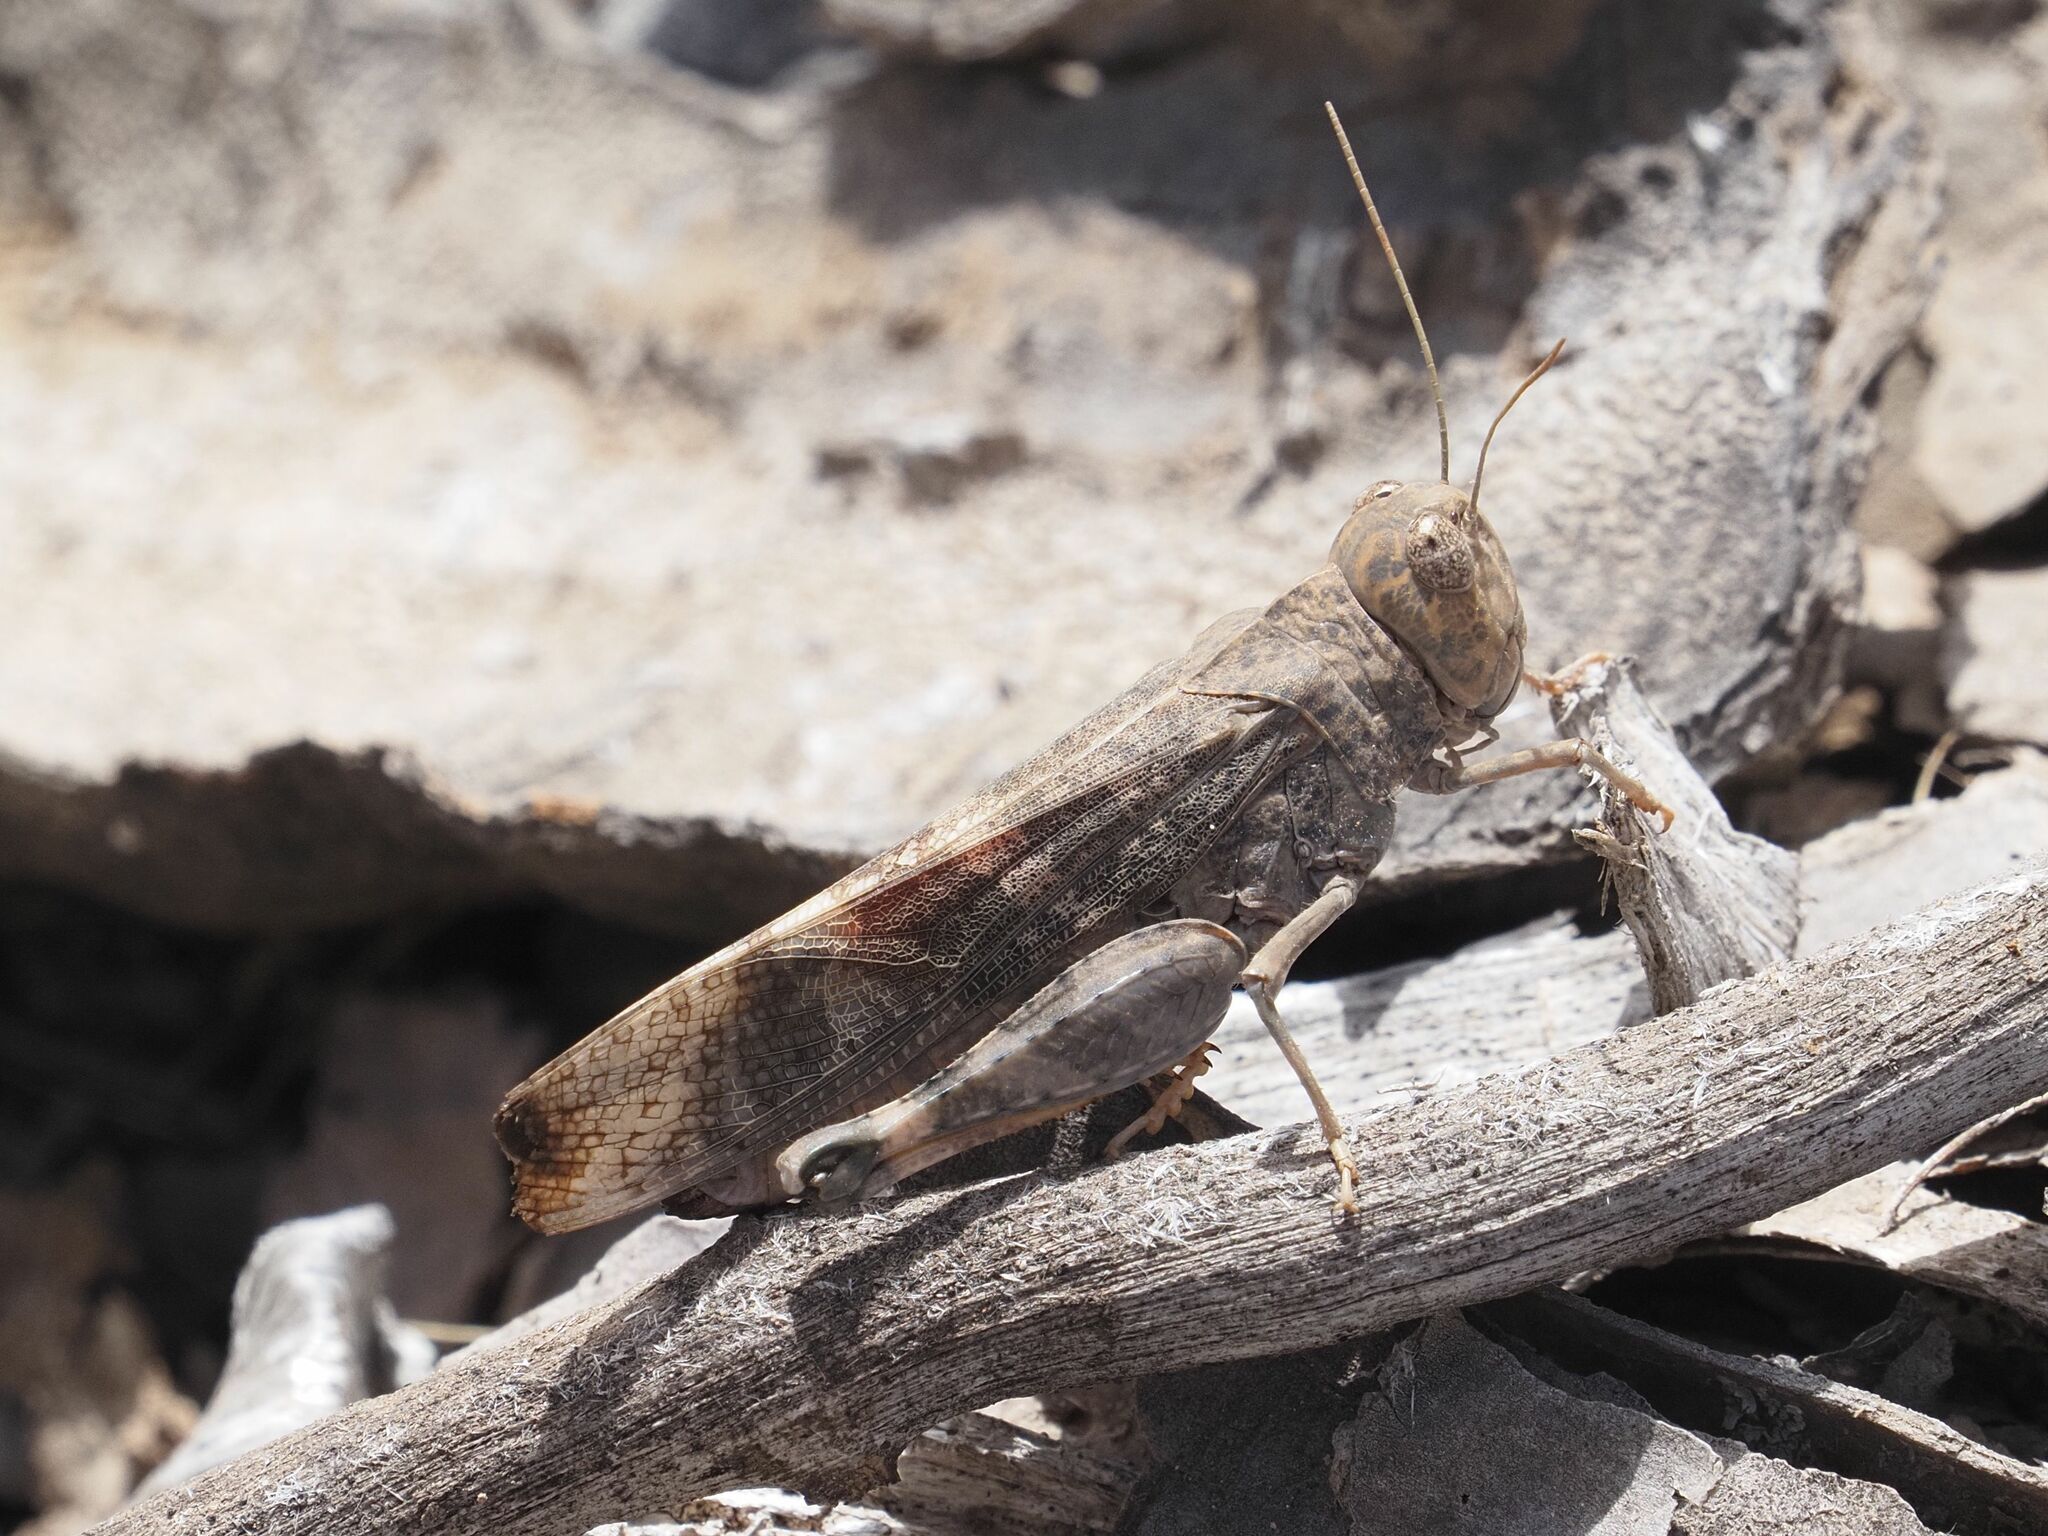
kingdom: Animalia
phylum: Arthropoda
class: Insecta
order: Orthoptera
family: Acrididae
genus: Scintharista
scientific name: Scintharista notabilis
